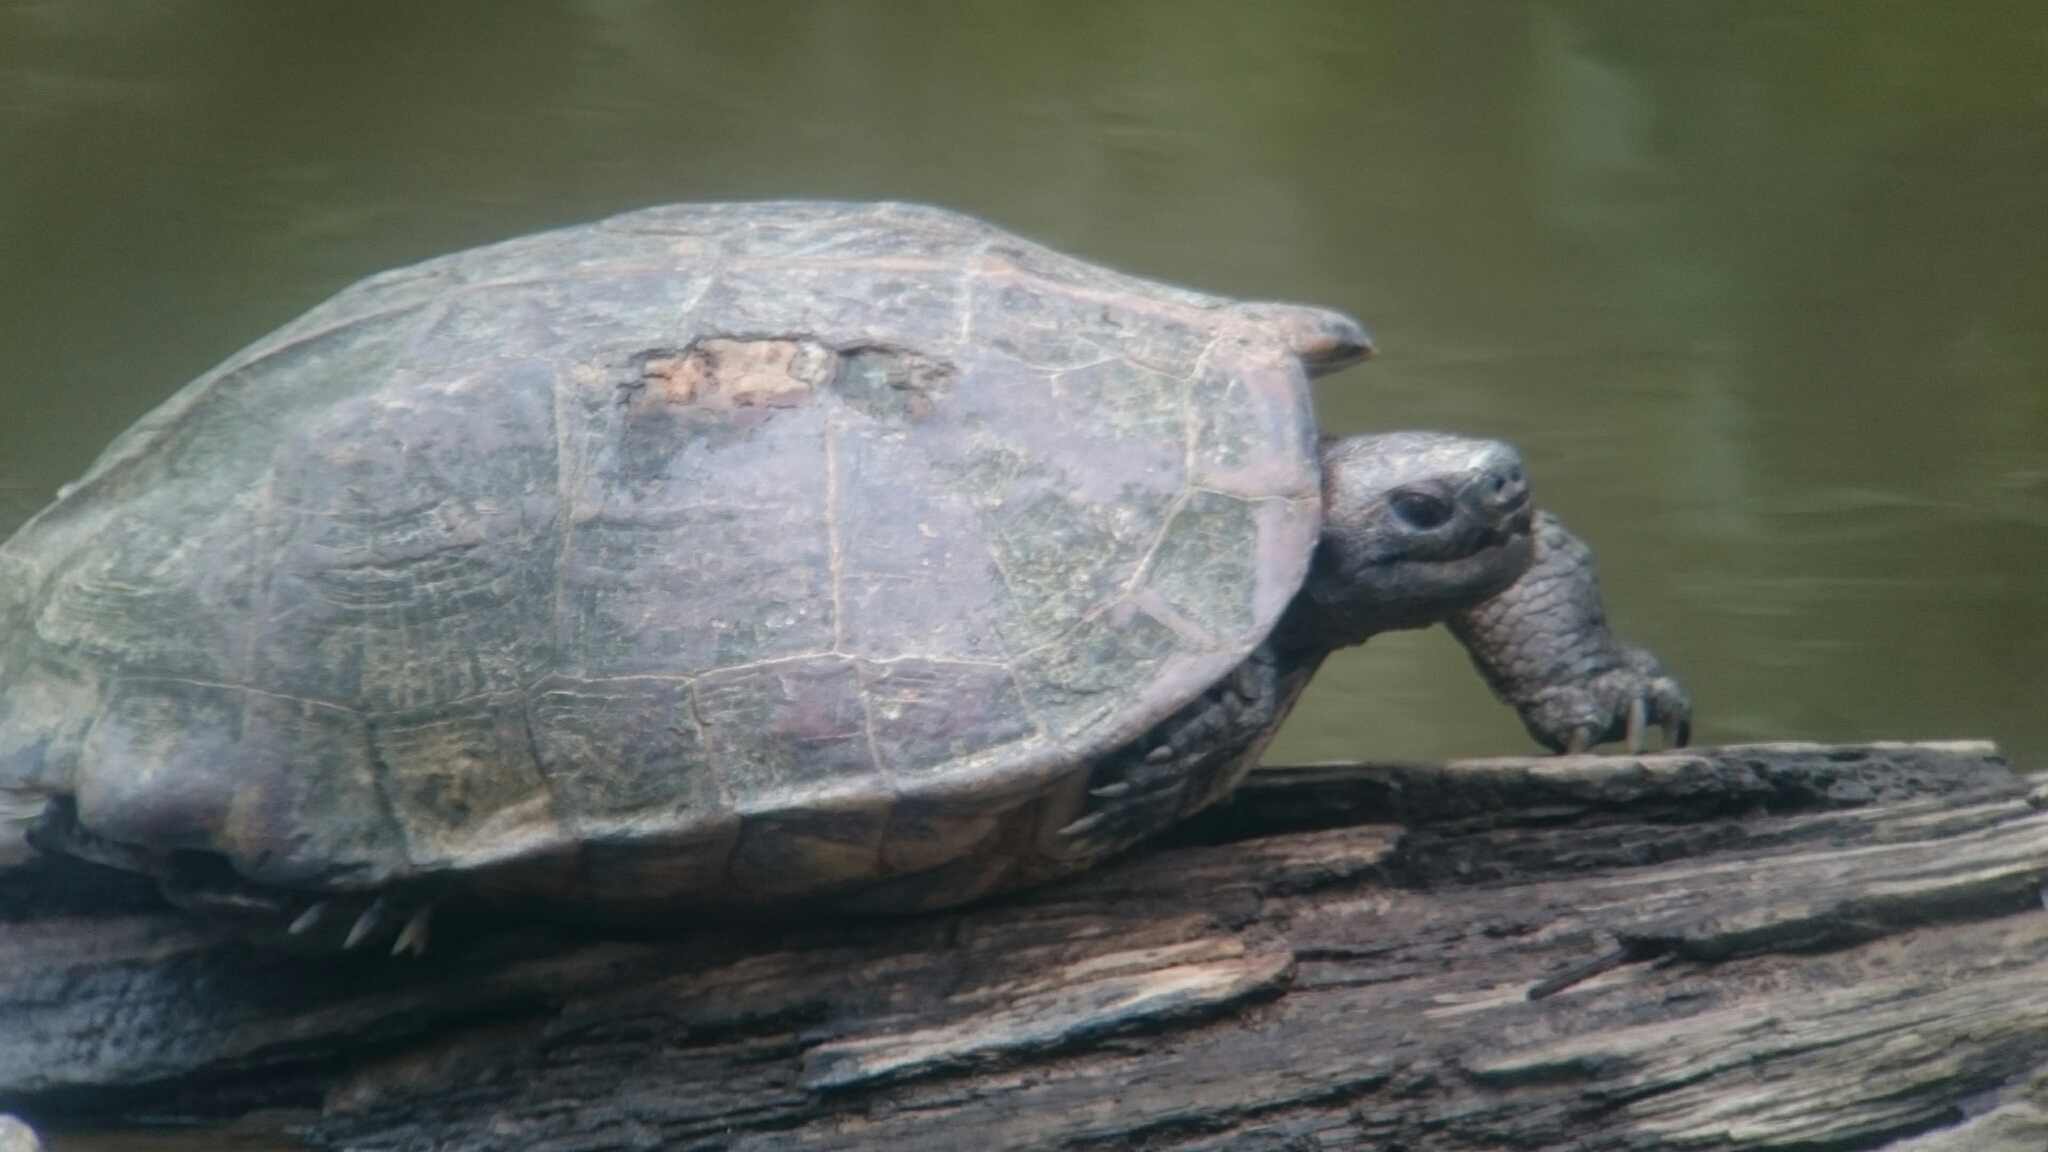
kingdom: Animalia
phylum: Chordata
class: Testudines
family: Geoemydidae
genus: Heosemys
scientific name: Heosemys grandis
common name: Giant asian pond turtle
